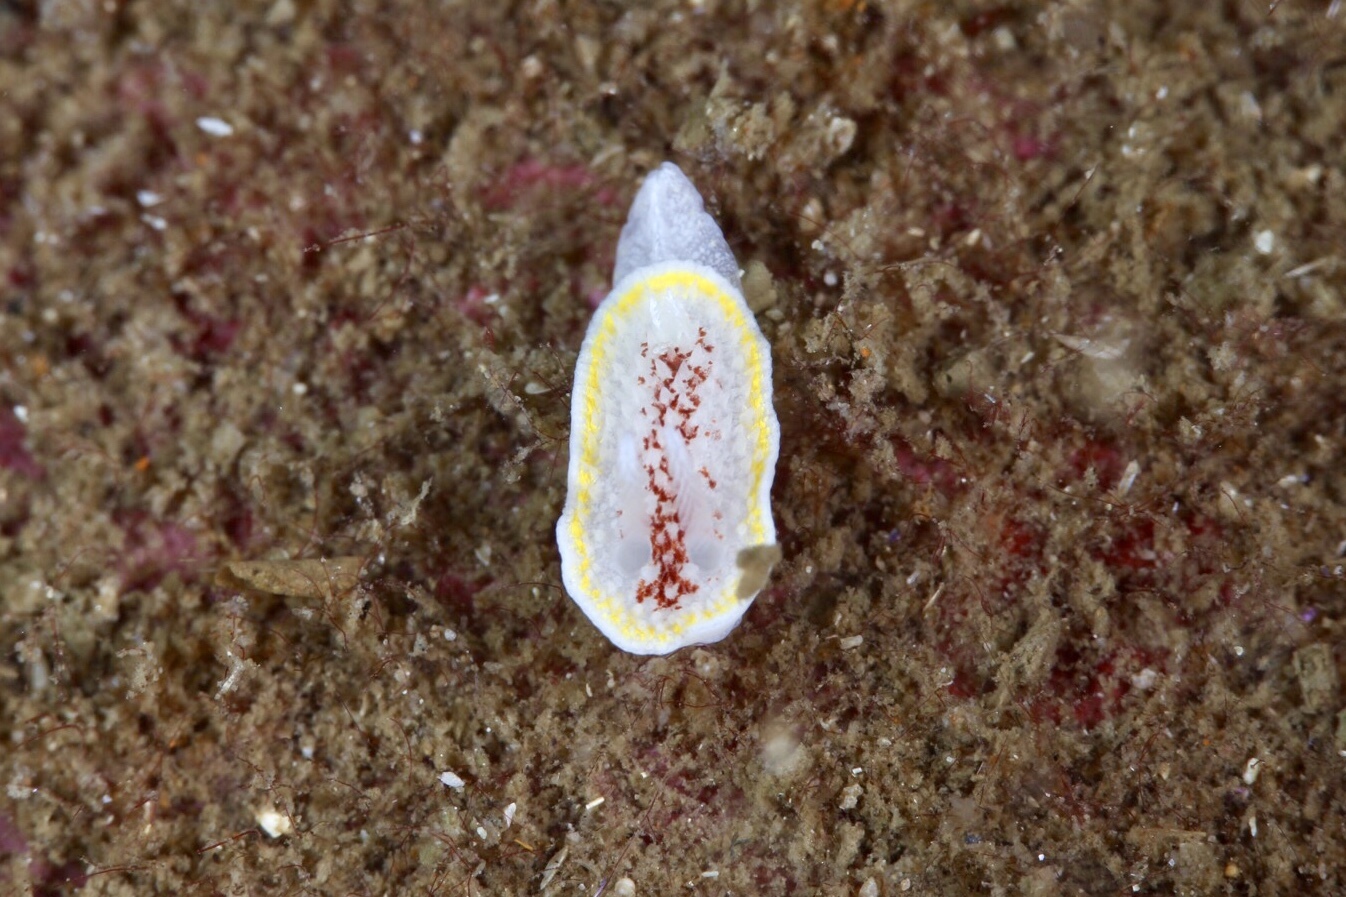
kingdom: Animalia
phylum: Mollusca
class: Gastropoda
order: Nudibranchia
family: Calycidorididae
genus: Diaphorodoris
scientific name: Diaphorodoris luteocincta
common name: Fried egg nudibranch
